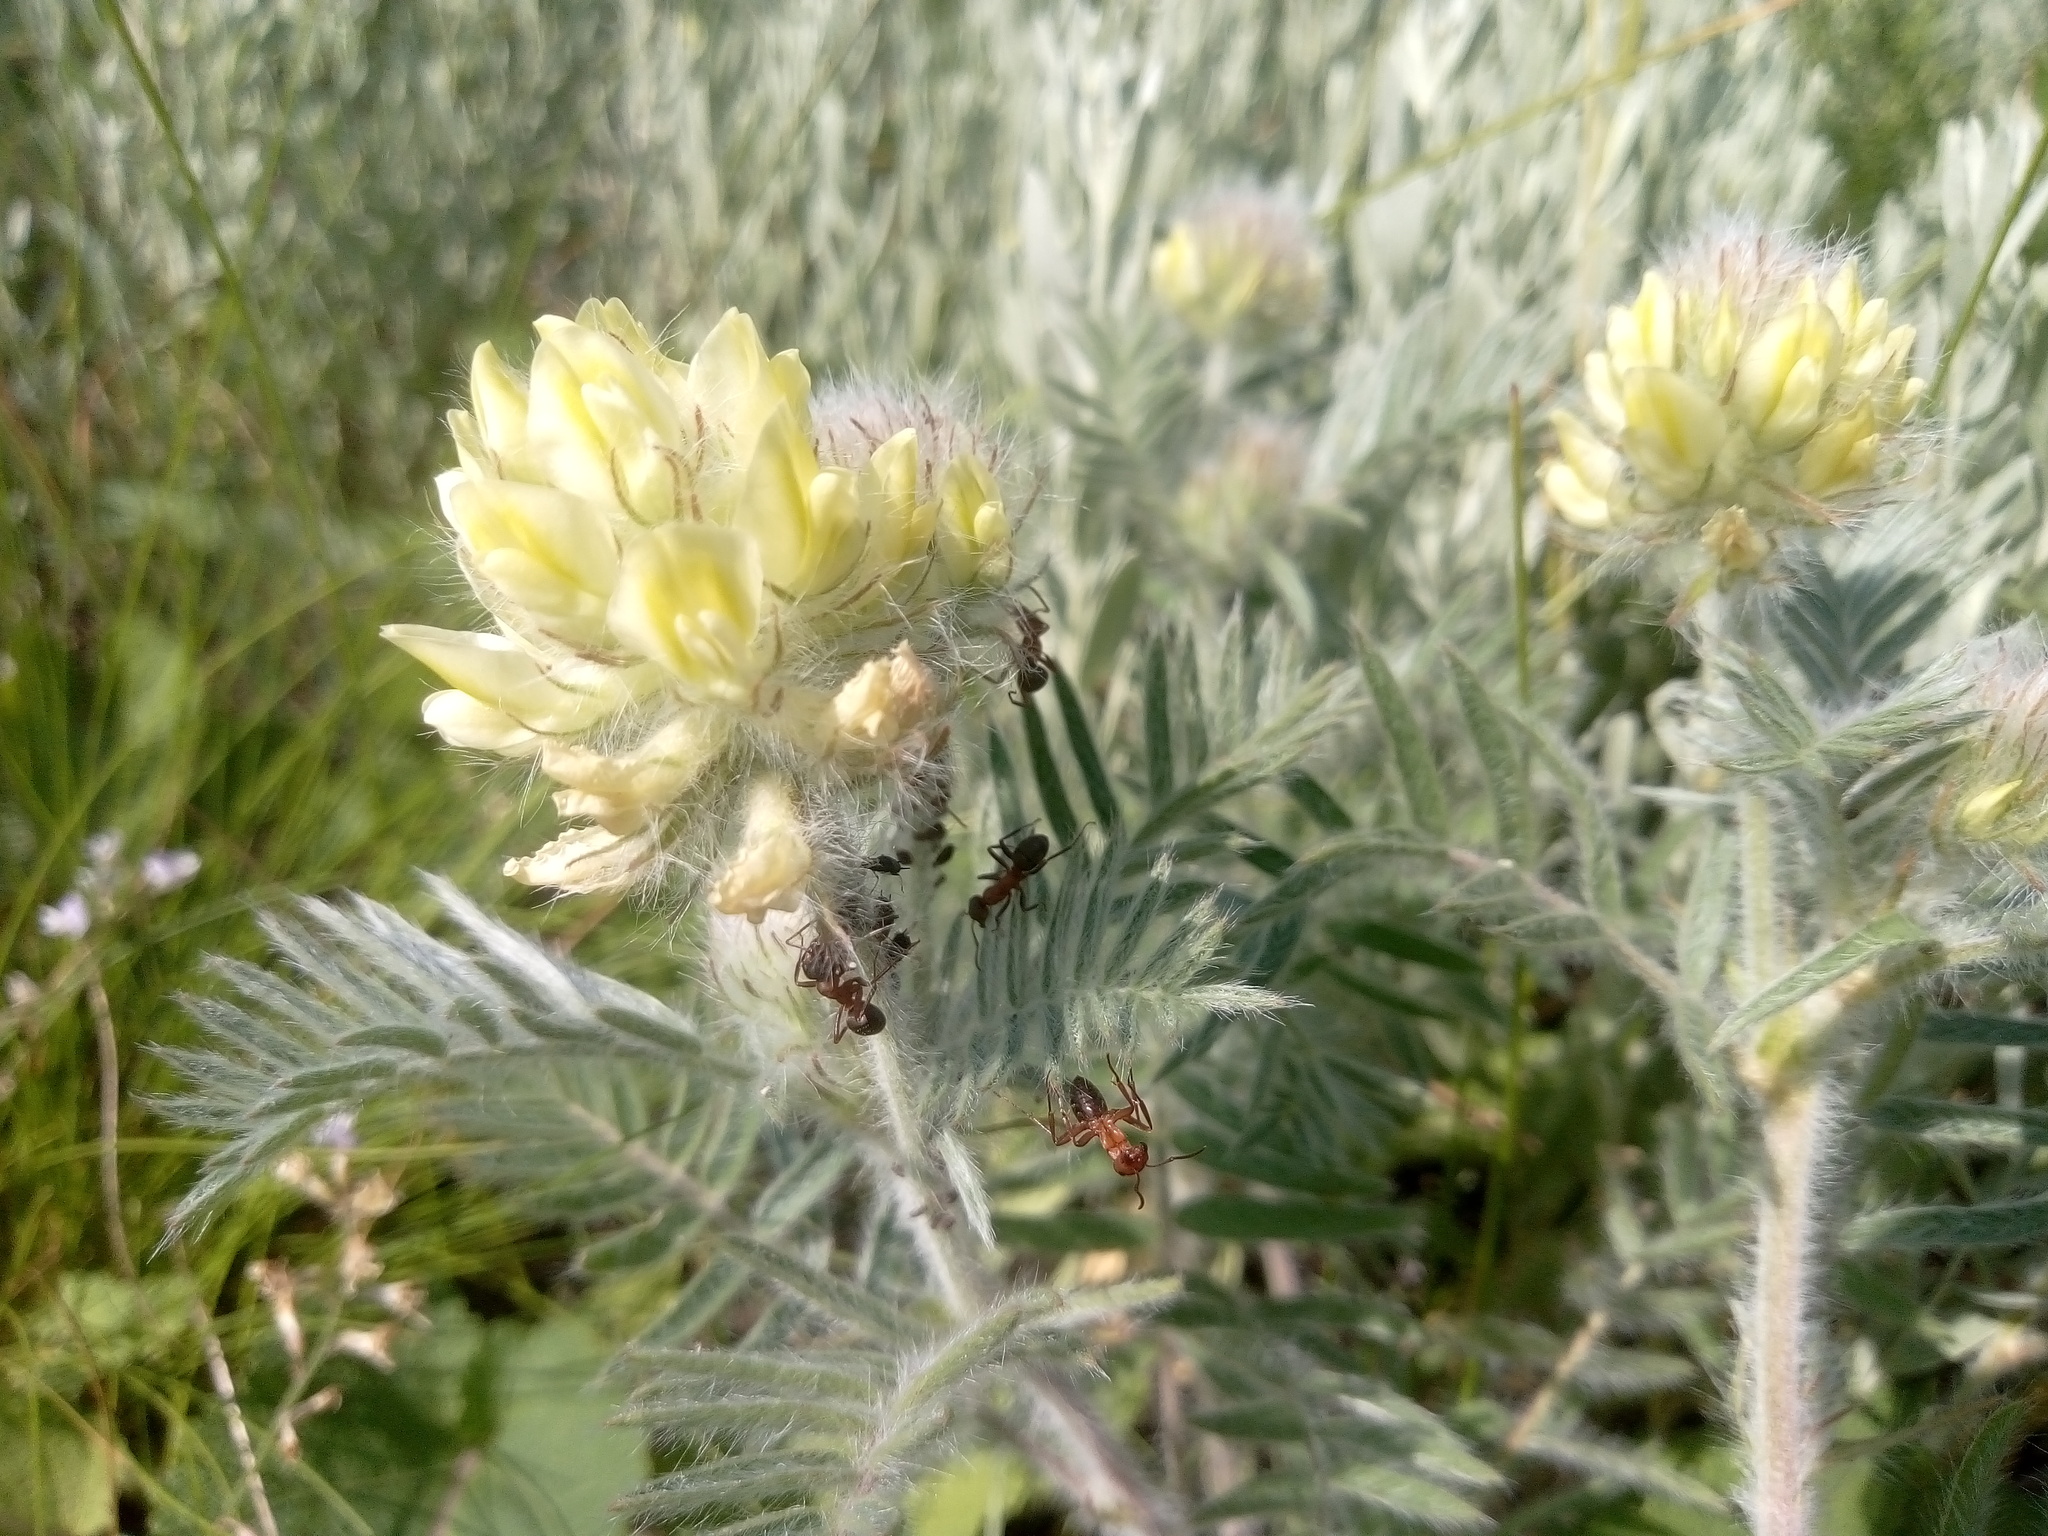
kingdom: Plantae
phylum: Tracheophyta
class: Magnoliopsida
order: Fabales
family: Fabaceae
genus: Oxytropis
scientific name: Oxytropis pilosa
